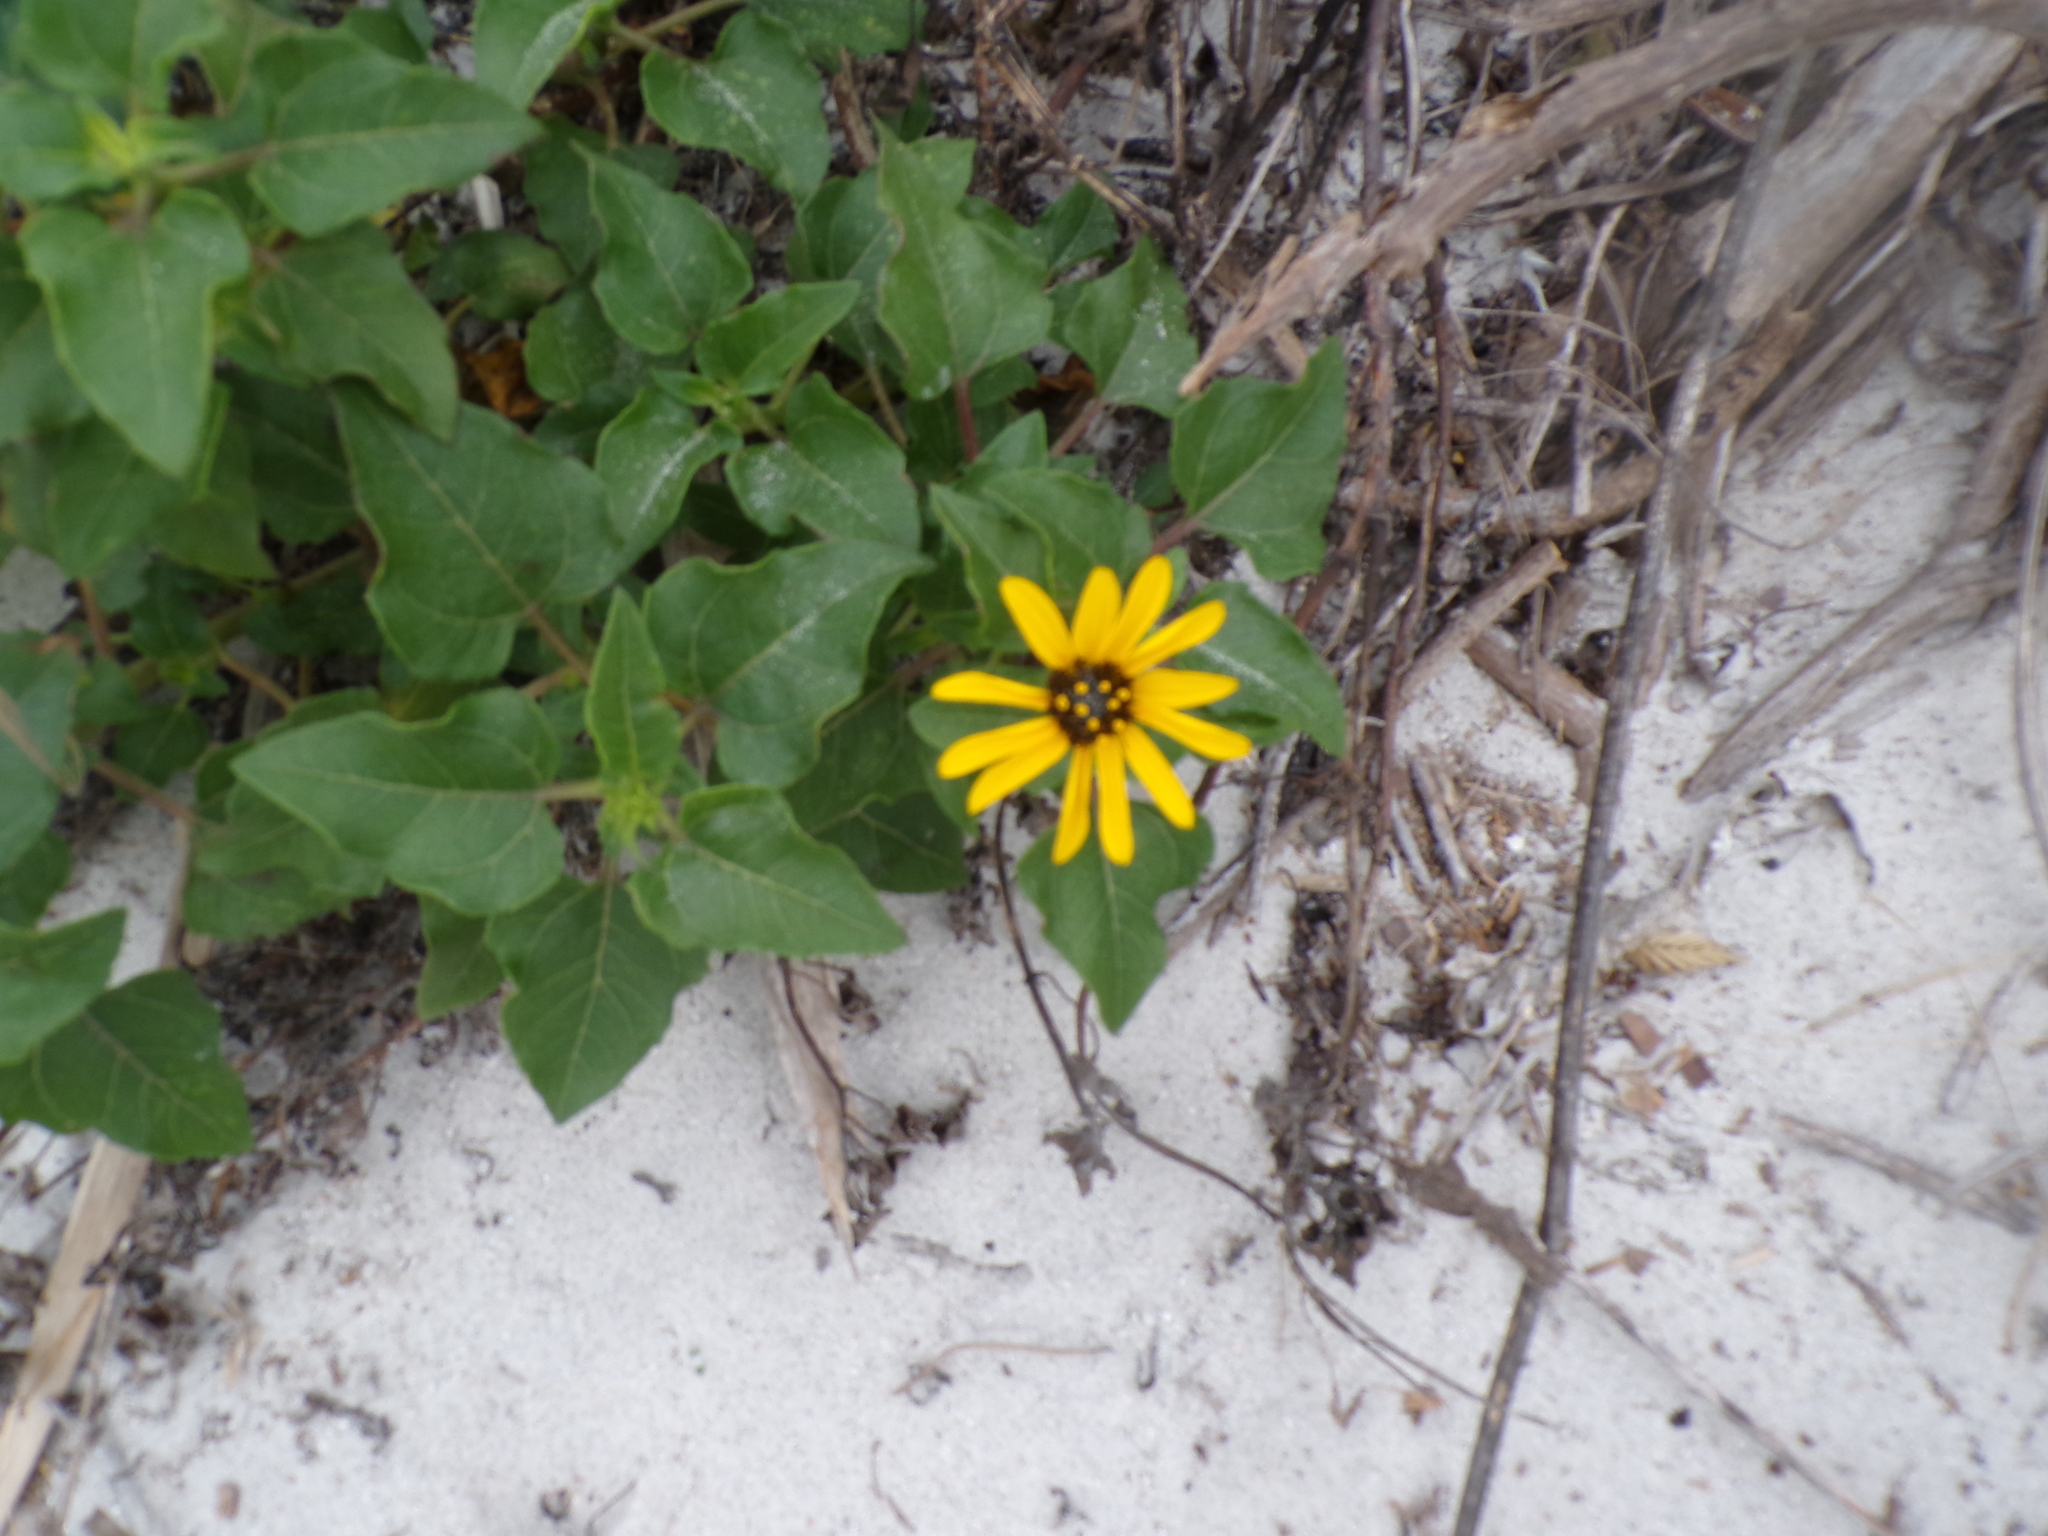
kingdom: Plantae
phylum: Tracheophyta
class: Magnoliopsida
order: Asterales
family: Asteraceae
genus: Helianthus
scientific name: Helianthus debilis
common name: Weak sunflower
